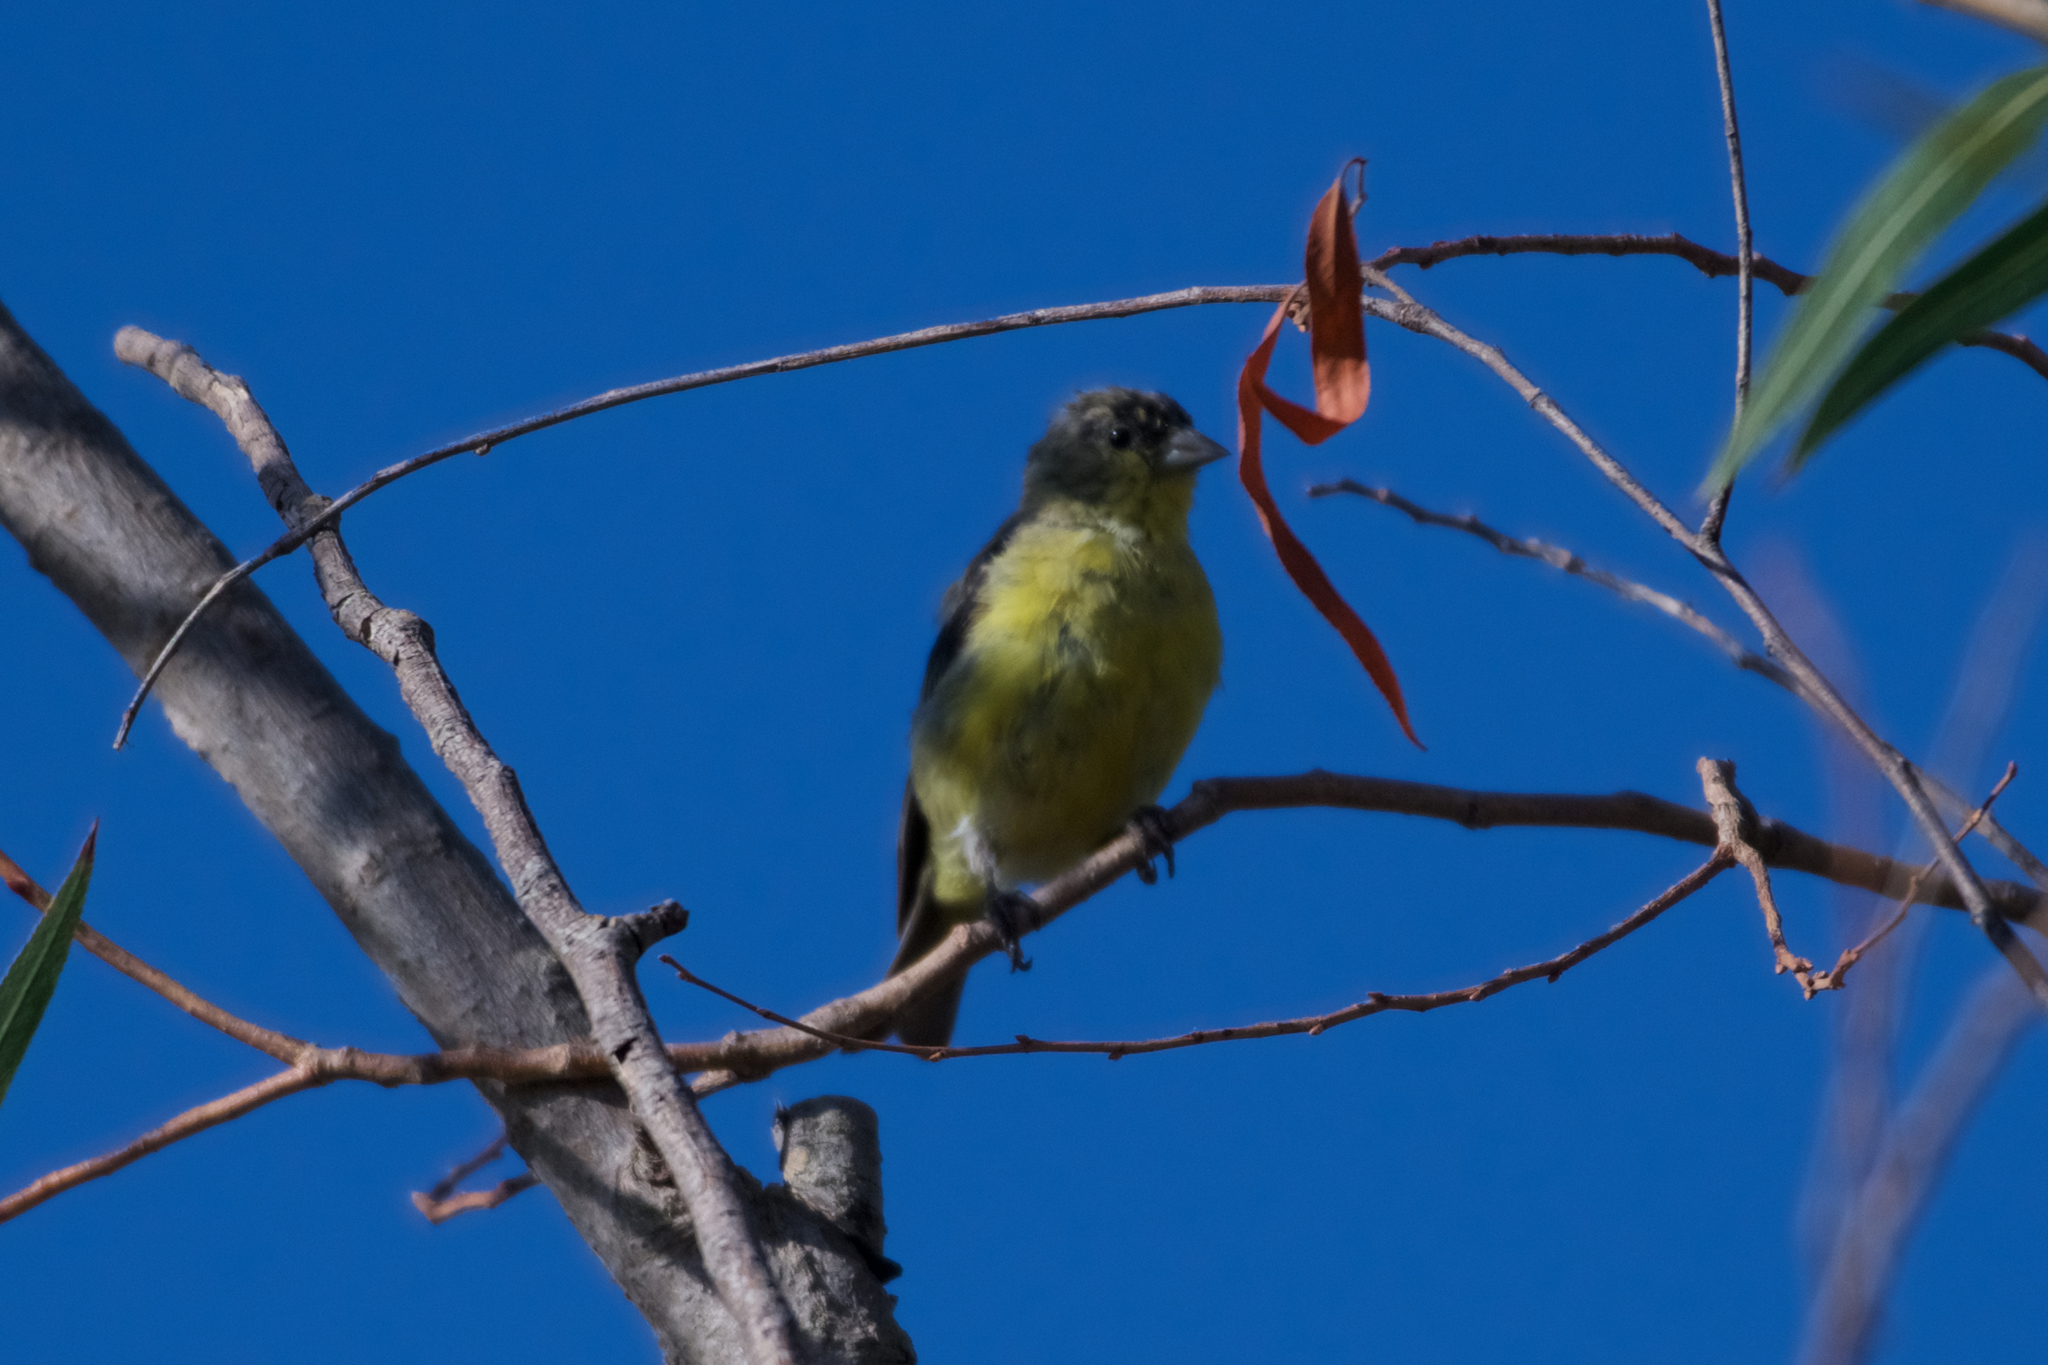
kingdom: Animalia
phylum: Chordata
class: Aves
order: Passeriformes
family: Fringillidae
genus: Spinus
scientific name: Spinus psaltria
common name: Lesser goldfinch
